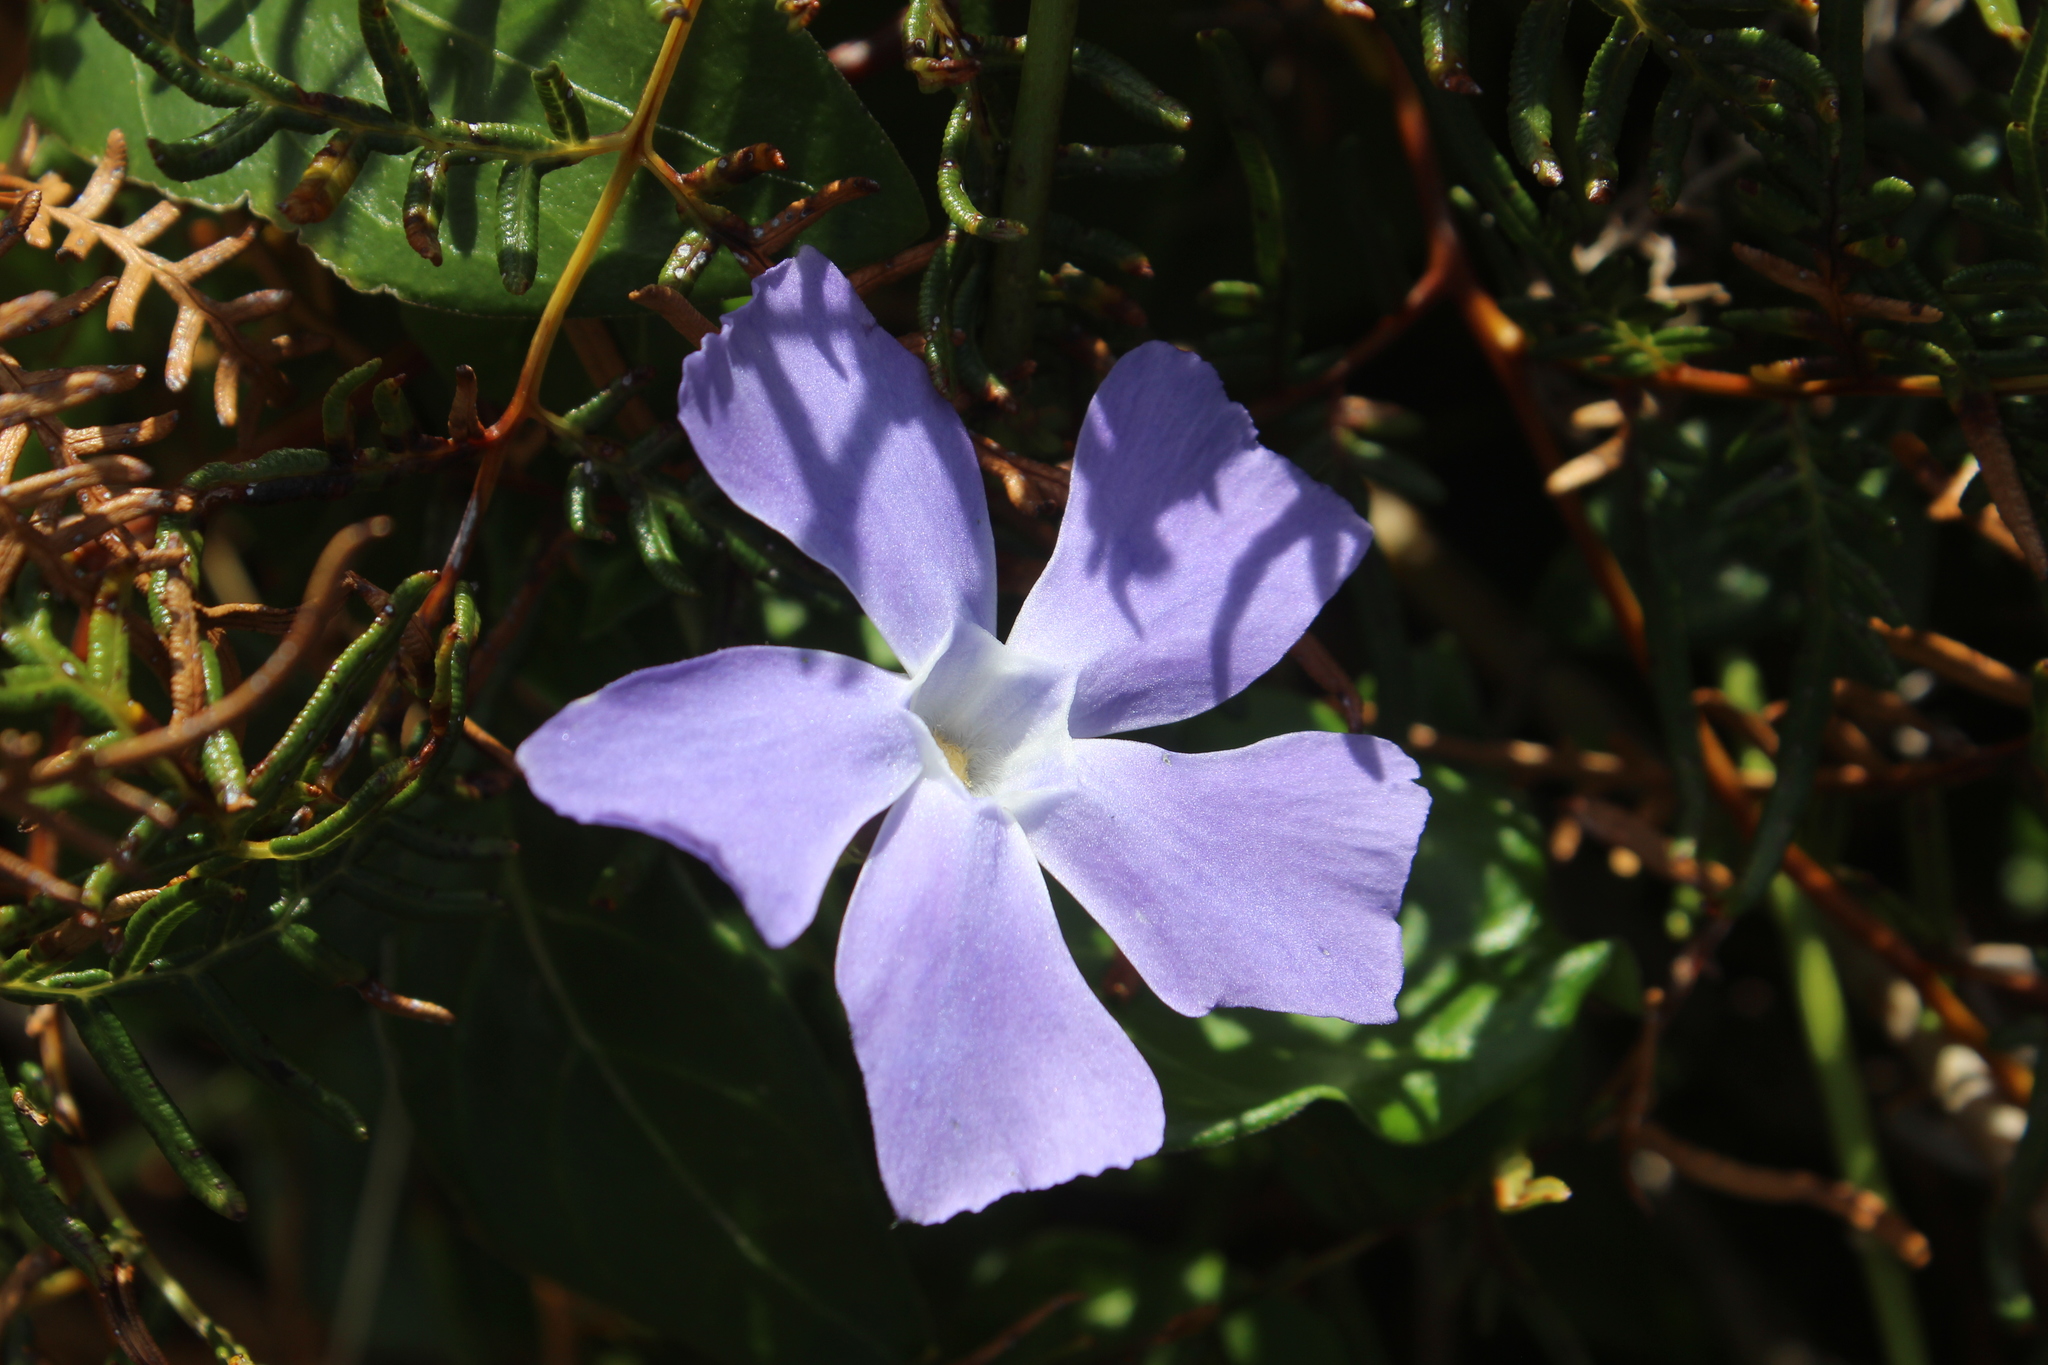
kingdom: Plantae
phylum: Tracheophyta
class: Magnoliopsida
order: Gentianales
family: Apocynaceae
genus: Vinca
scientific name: Vinca major
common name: Greater periwinkle
